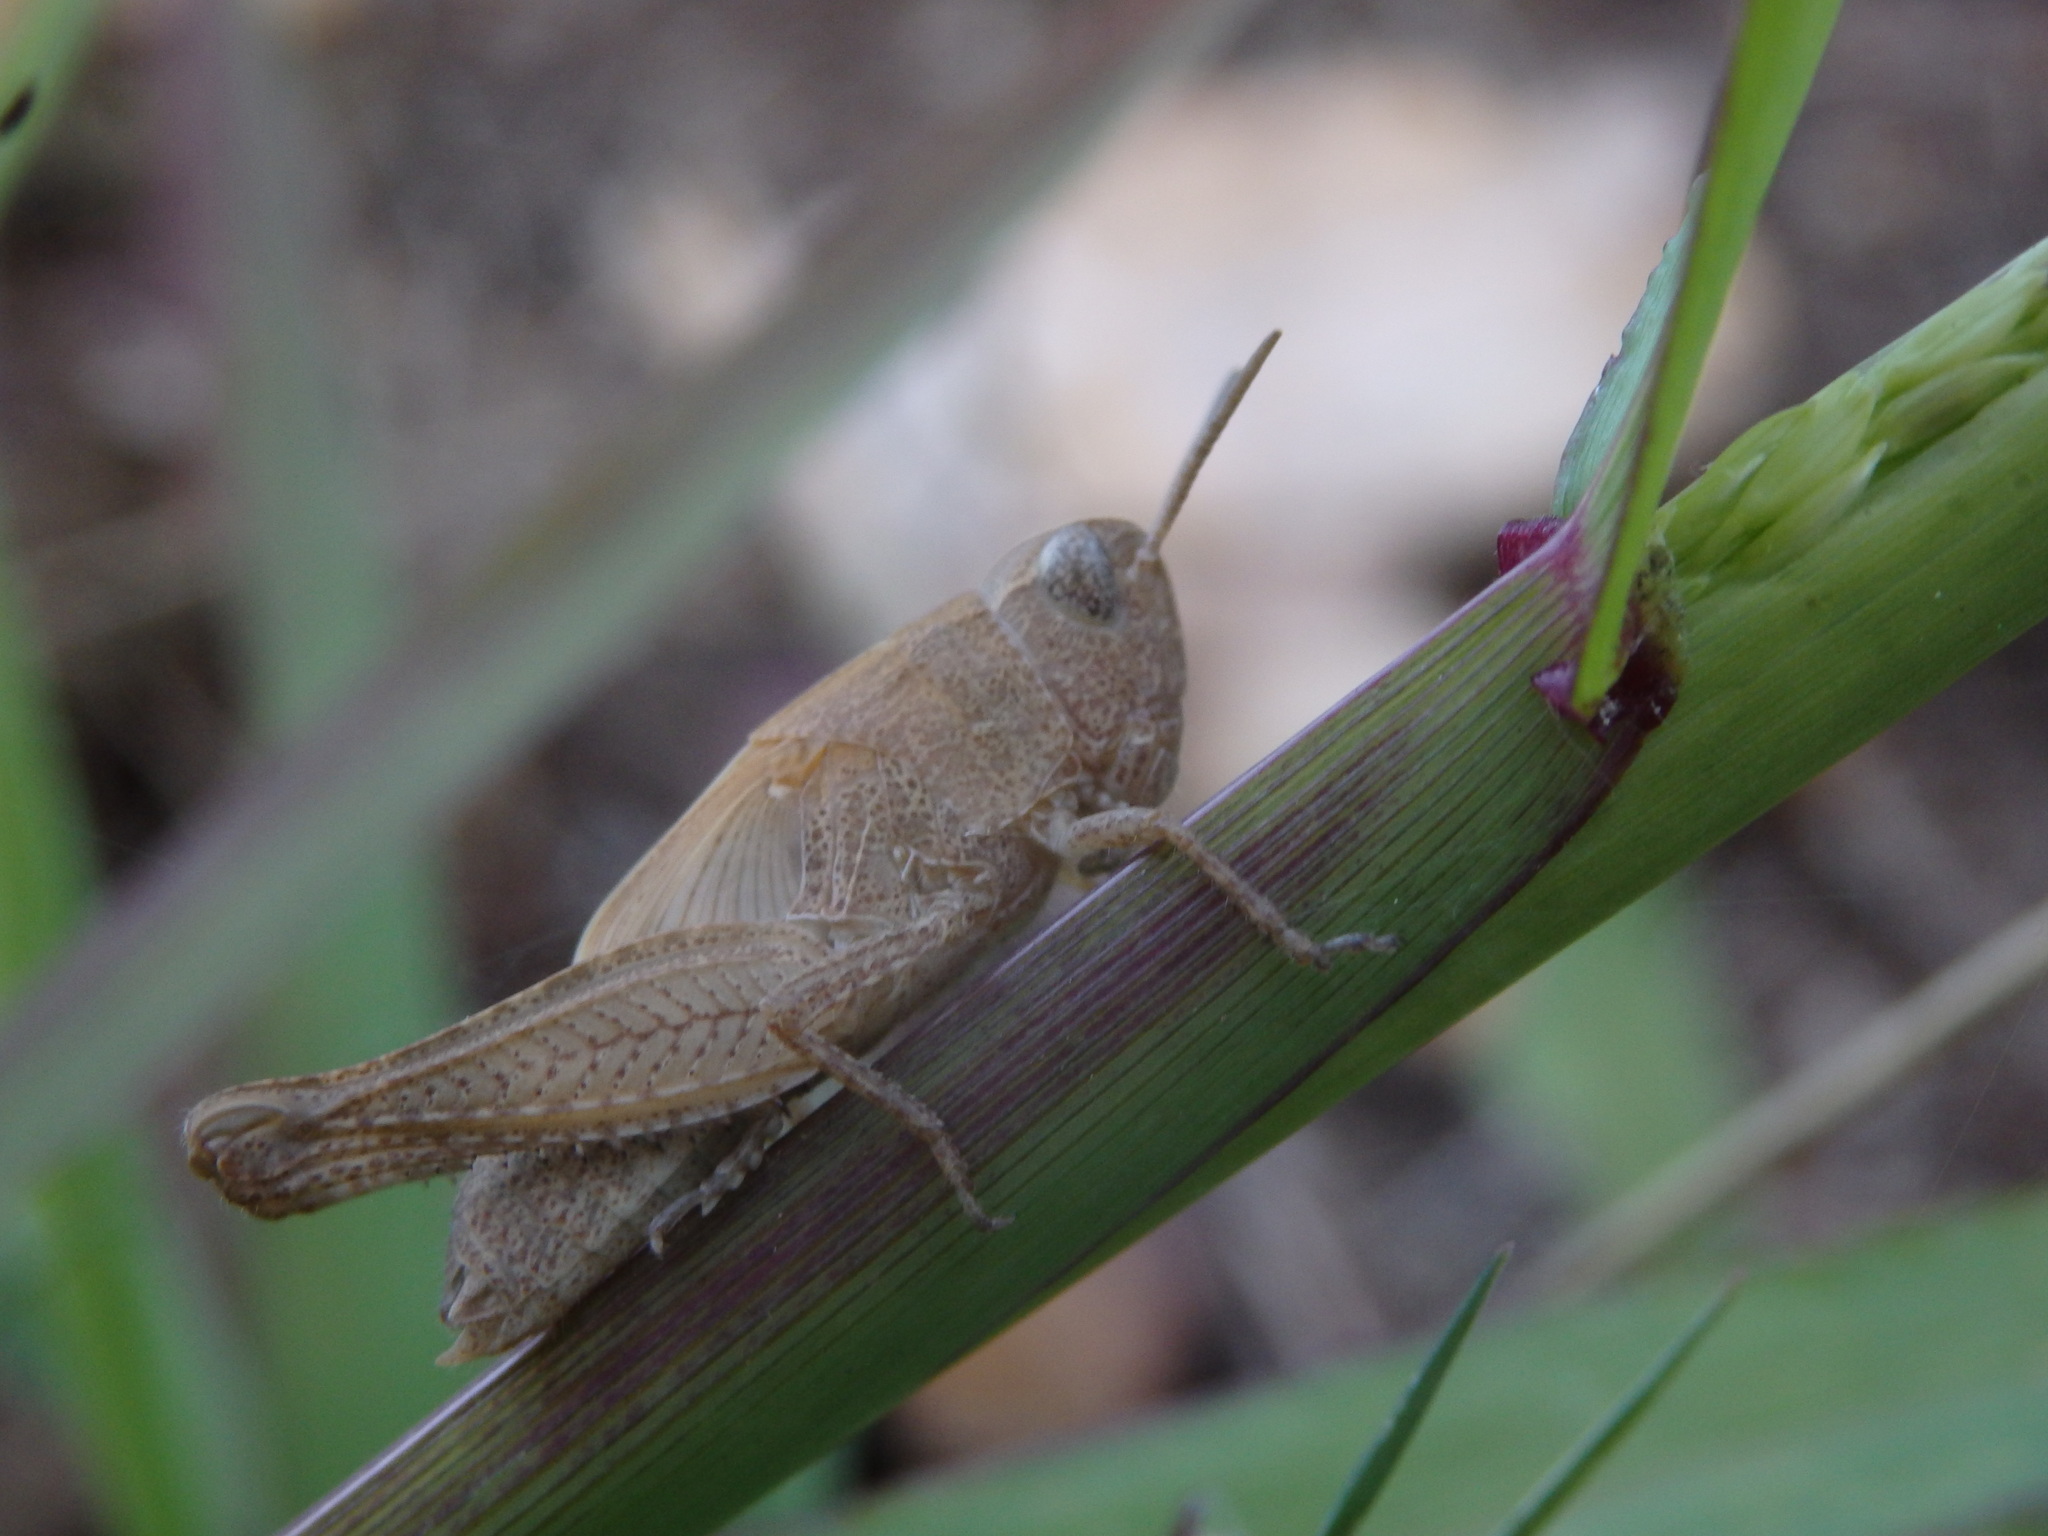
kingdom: Animalia
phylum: Arthropoda
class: Insecta
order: Orthoptera
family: Acrididae
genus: Aiolopus
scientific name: Aiolopus strepens
